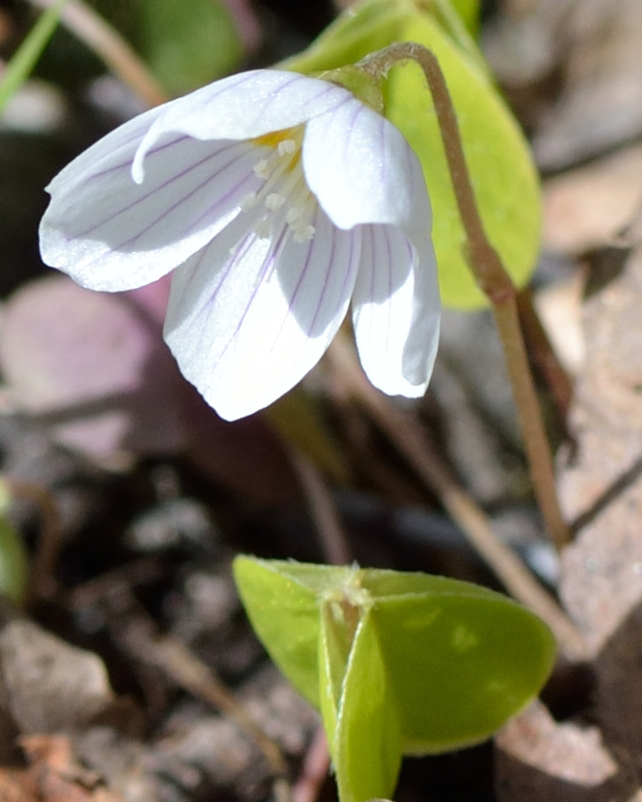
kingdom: Plantae
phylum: Tracheophyta
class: Magnoliopsida
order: Oxalidales
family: Oxalidaceae
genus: Oxalis
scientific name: Oxalis acetosella
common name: Wood-sorrel
